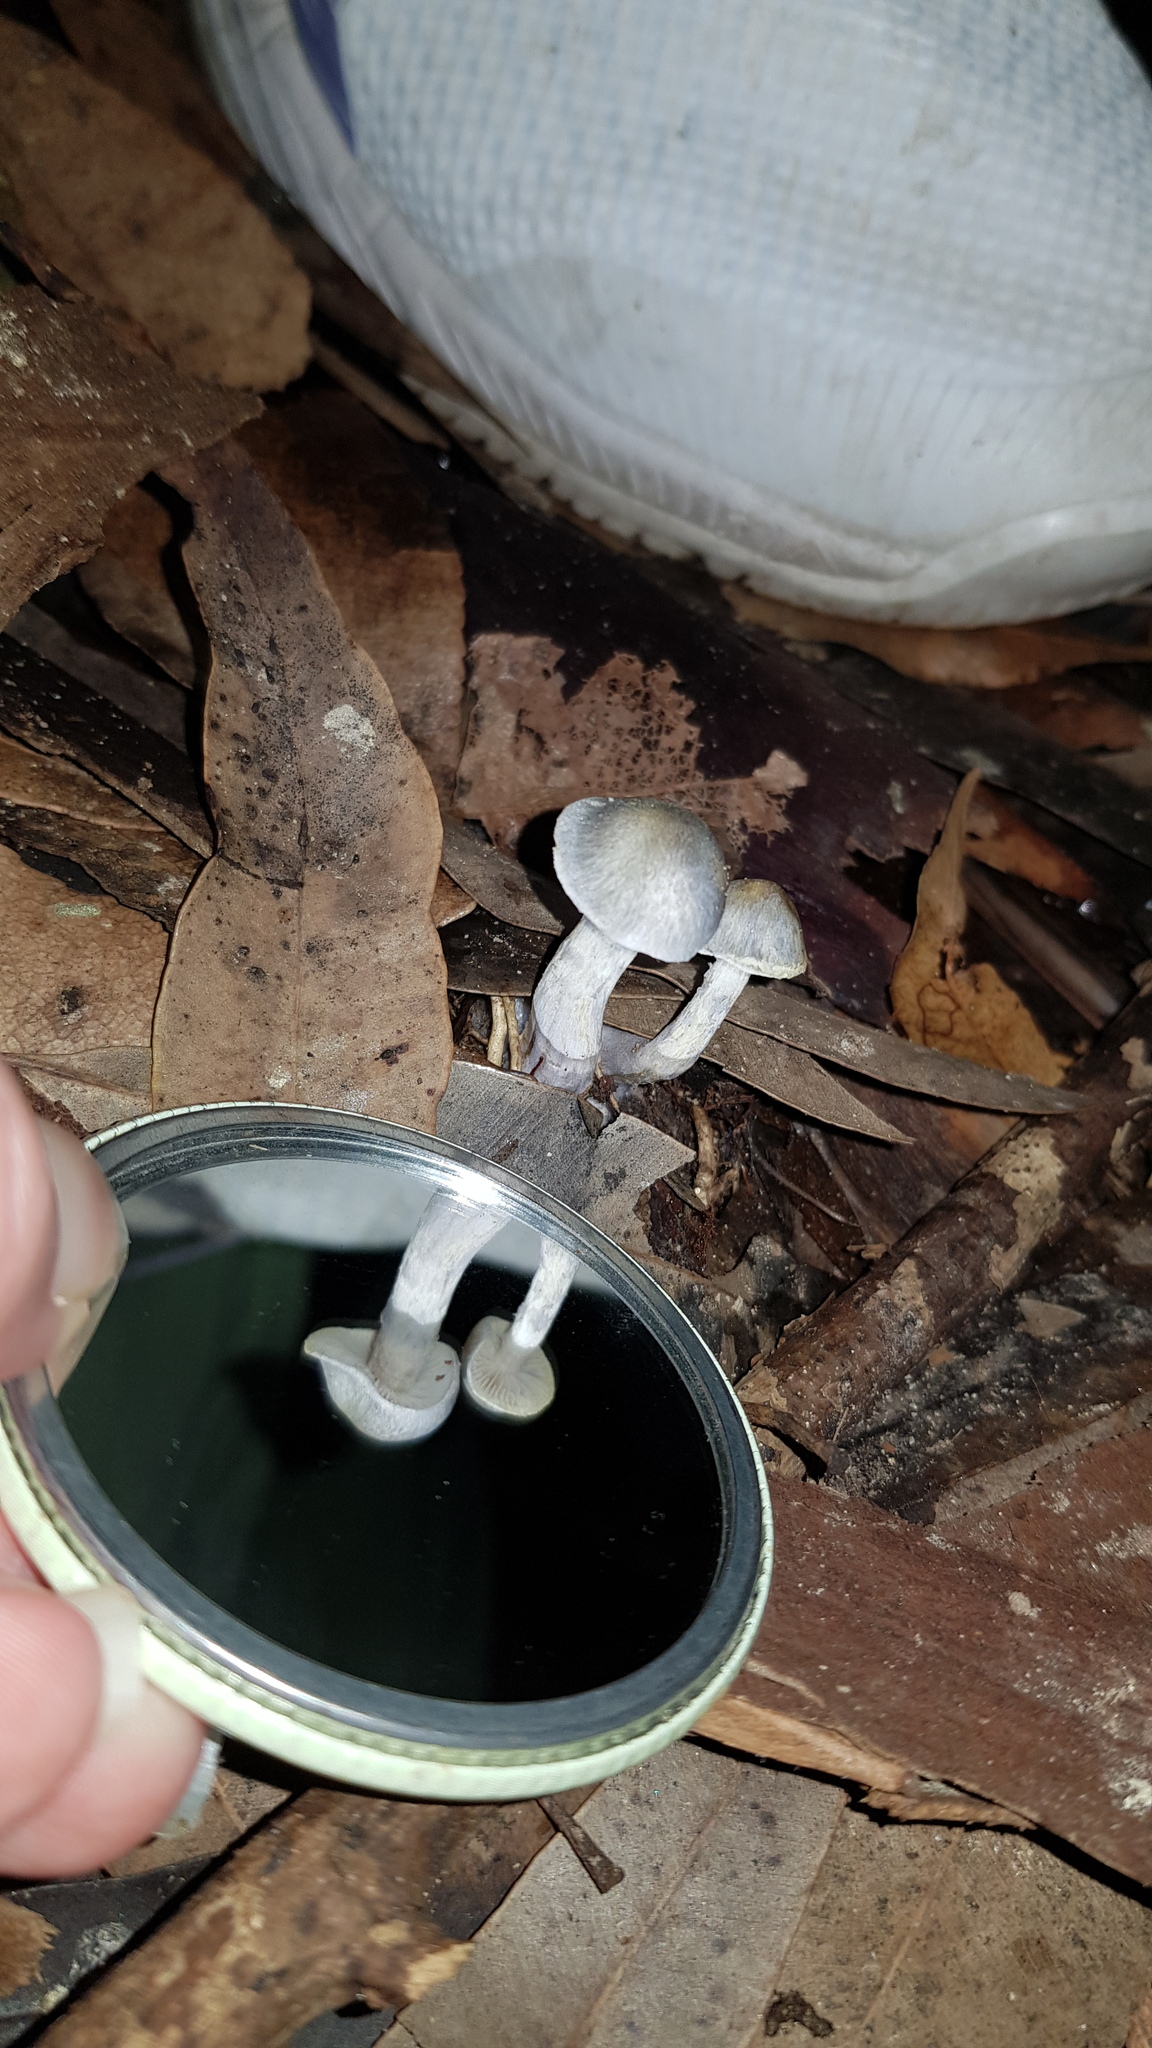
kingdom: Fungi
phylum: Basidiomycota
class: Agaricomycetes
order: Agaricales
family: Cortinariaceae
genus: Cortinarius
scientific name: Cortinarius rotundisporus
